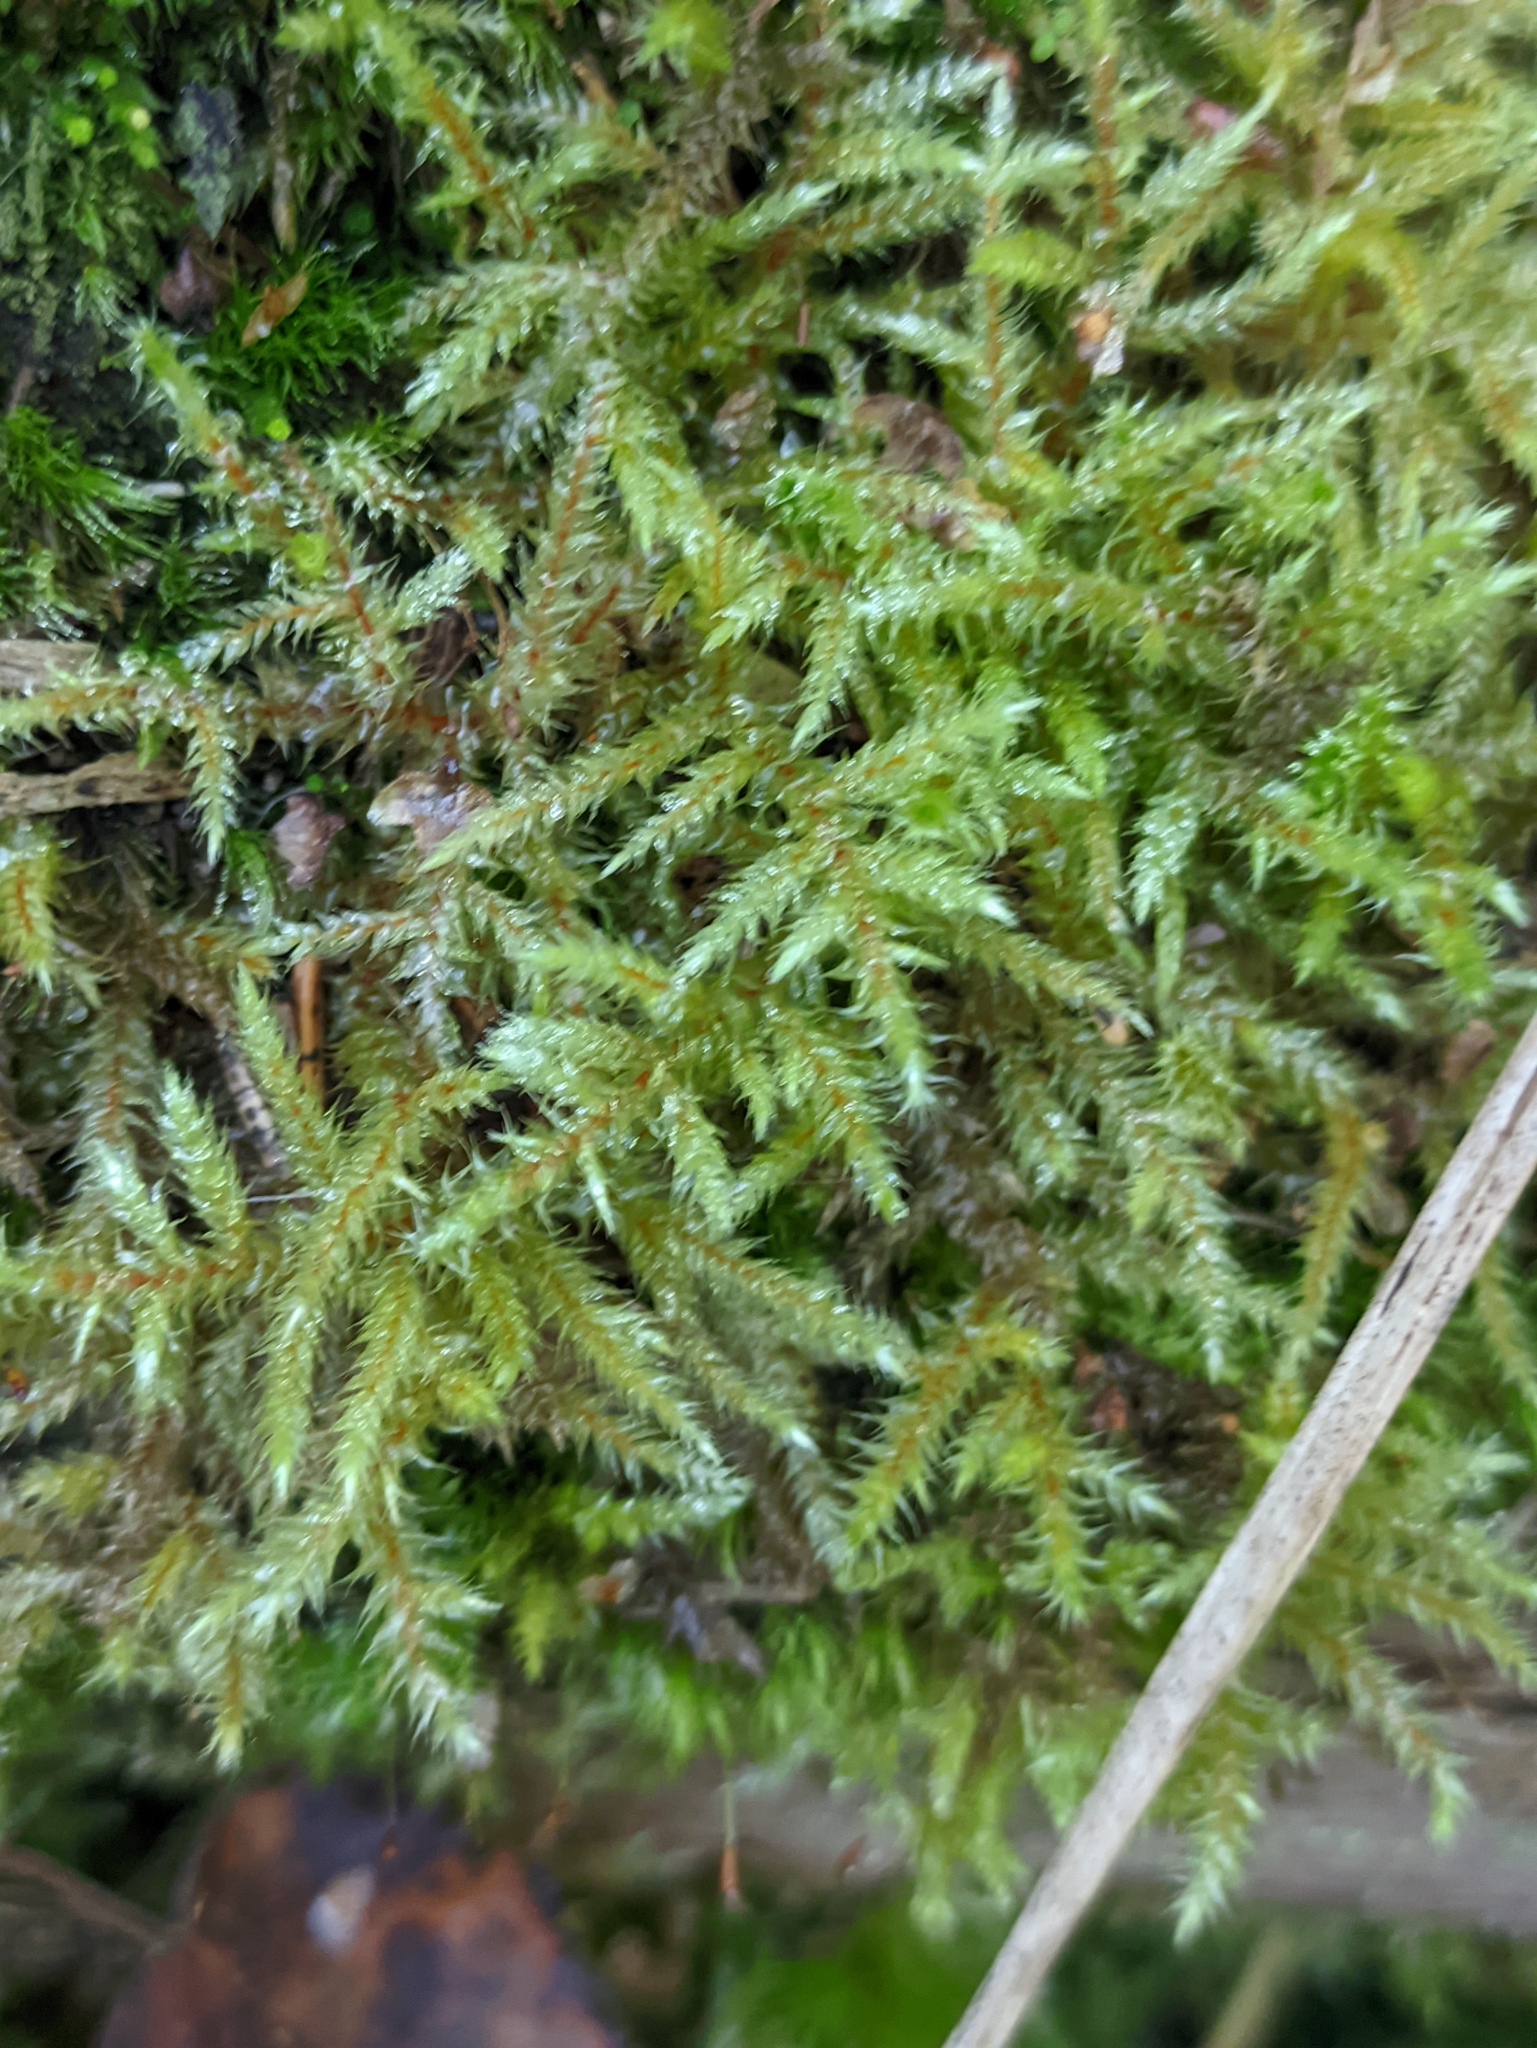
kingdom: Plantae
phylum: Bryophyta
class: Bryopsida
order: Hypnales
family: Hylocomiaceae
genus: Rhytidiadelphus
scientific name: Rhytidiadelphus subpinnatus
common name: Subpinnate gooseneck moss
